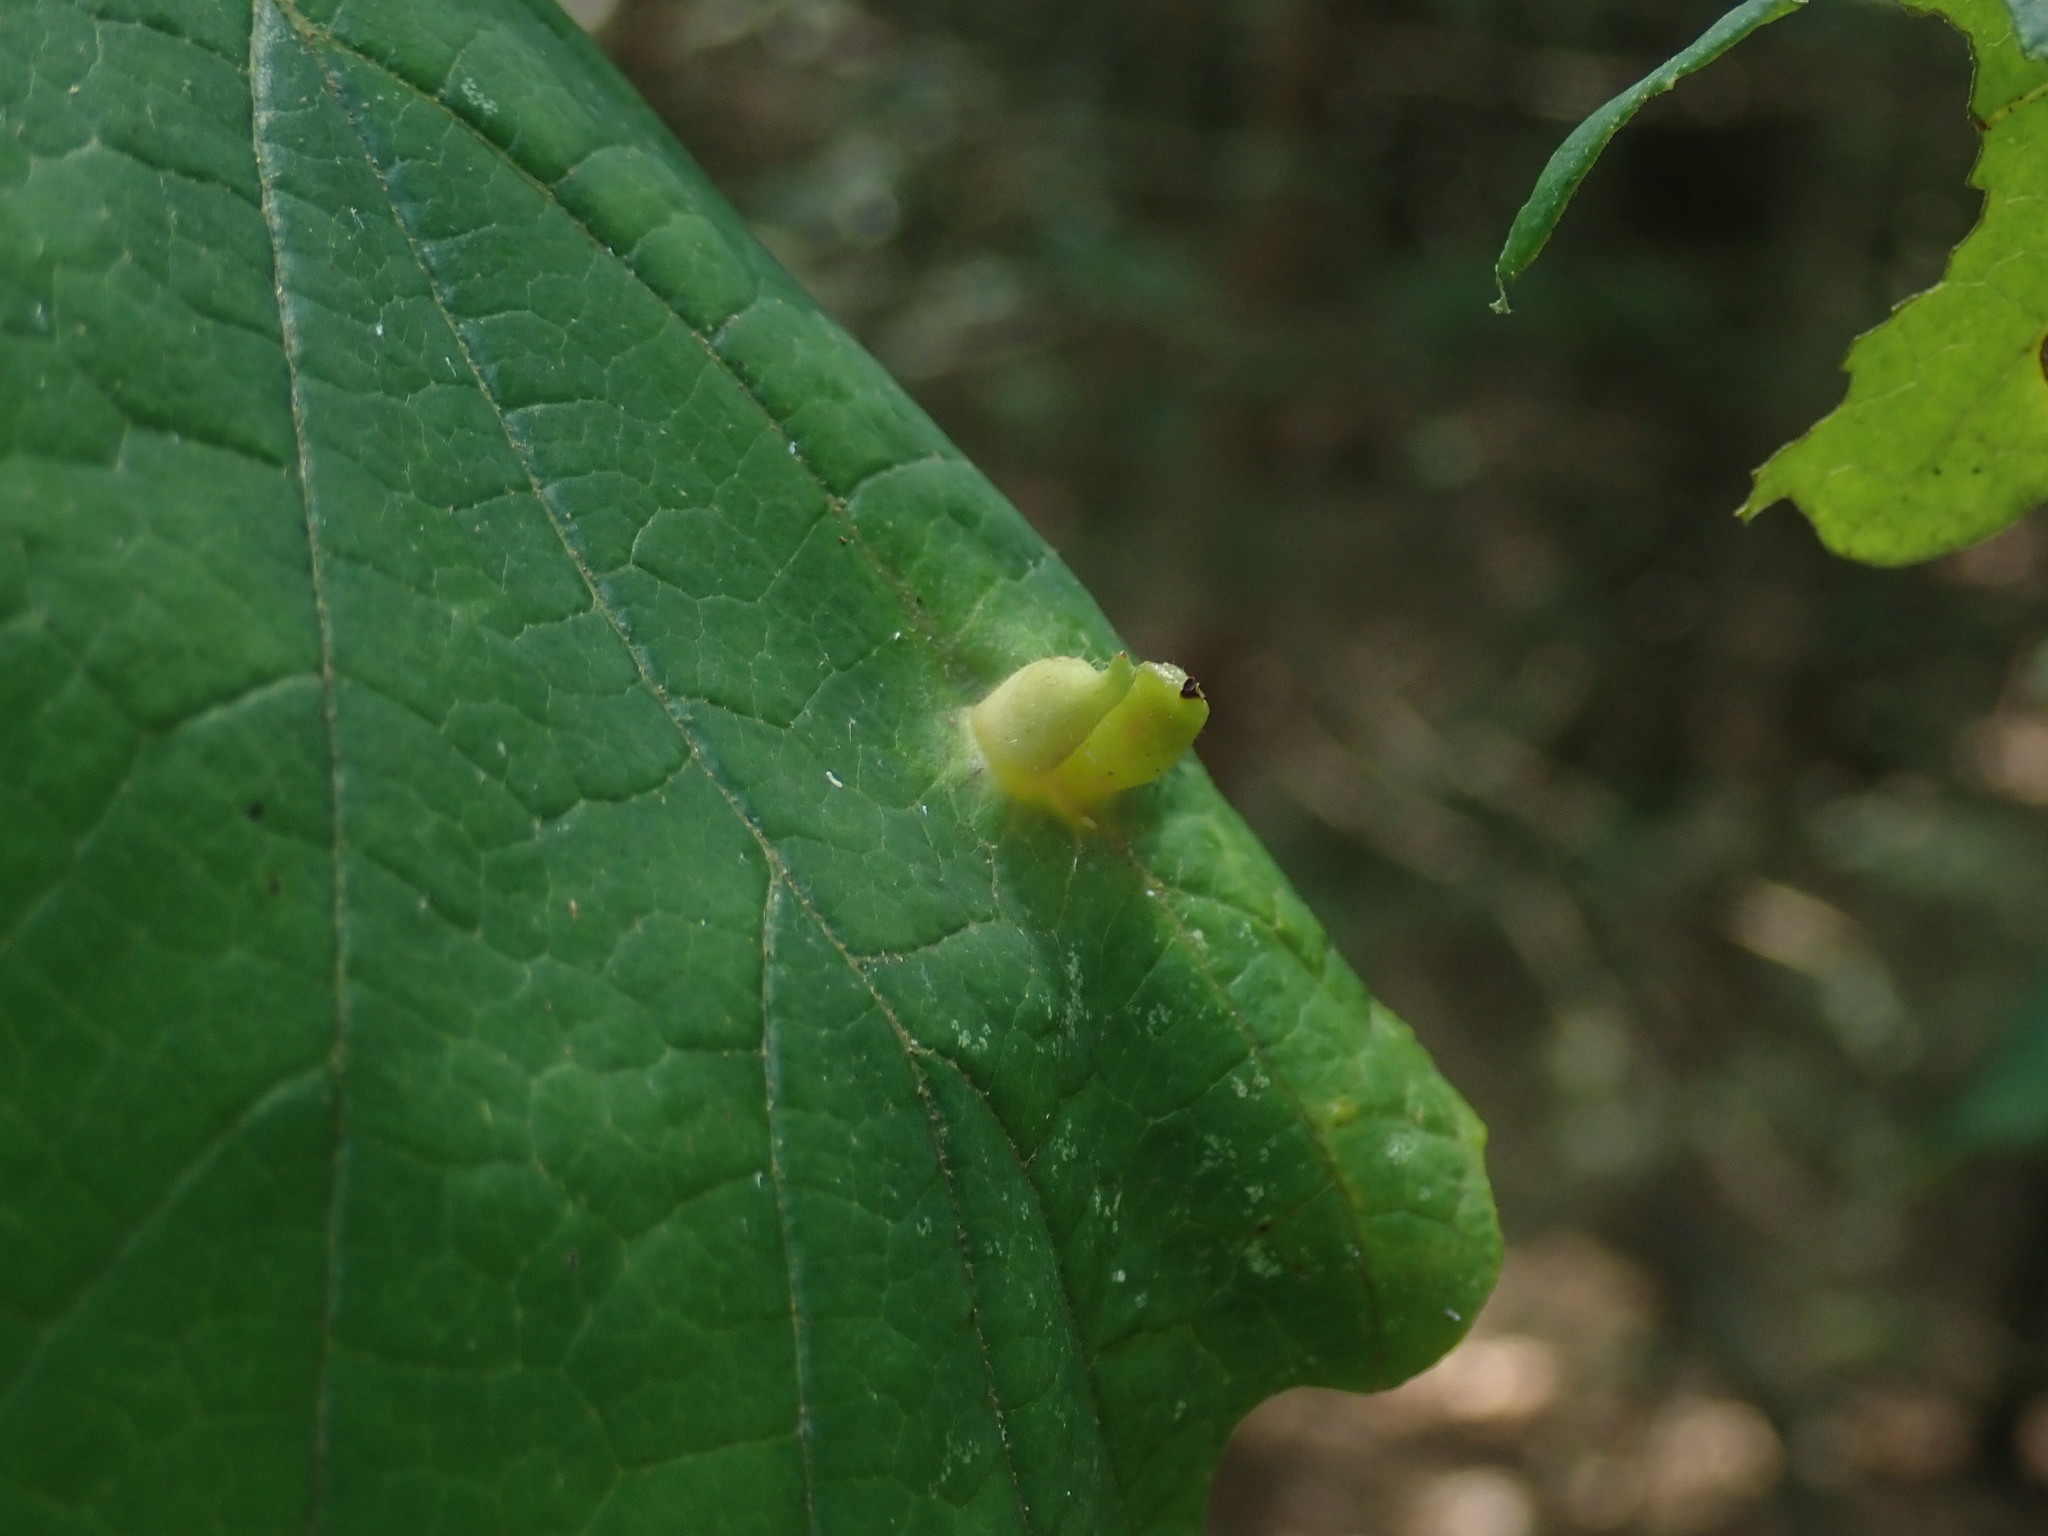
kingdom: Animalia
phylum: Arthropoda
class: Insecta
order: Hemiptera
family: Aphididae
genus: Hormaphis
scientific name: Hormaphis hamamelidis
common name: Witch-hazel cone gall aphid
